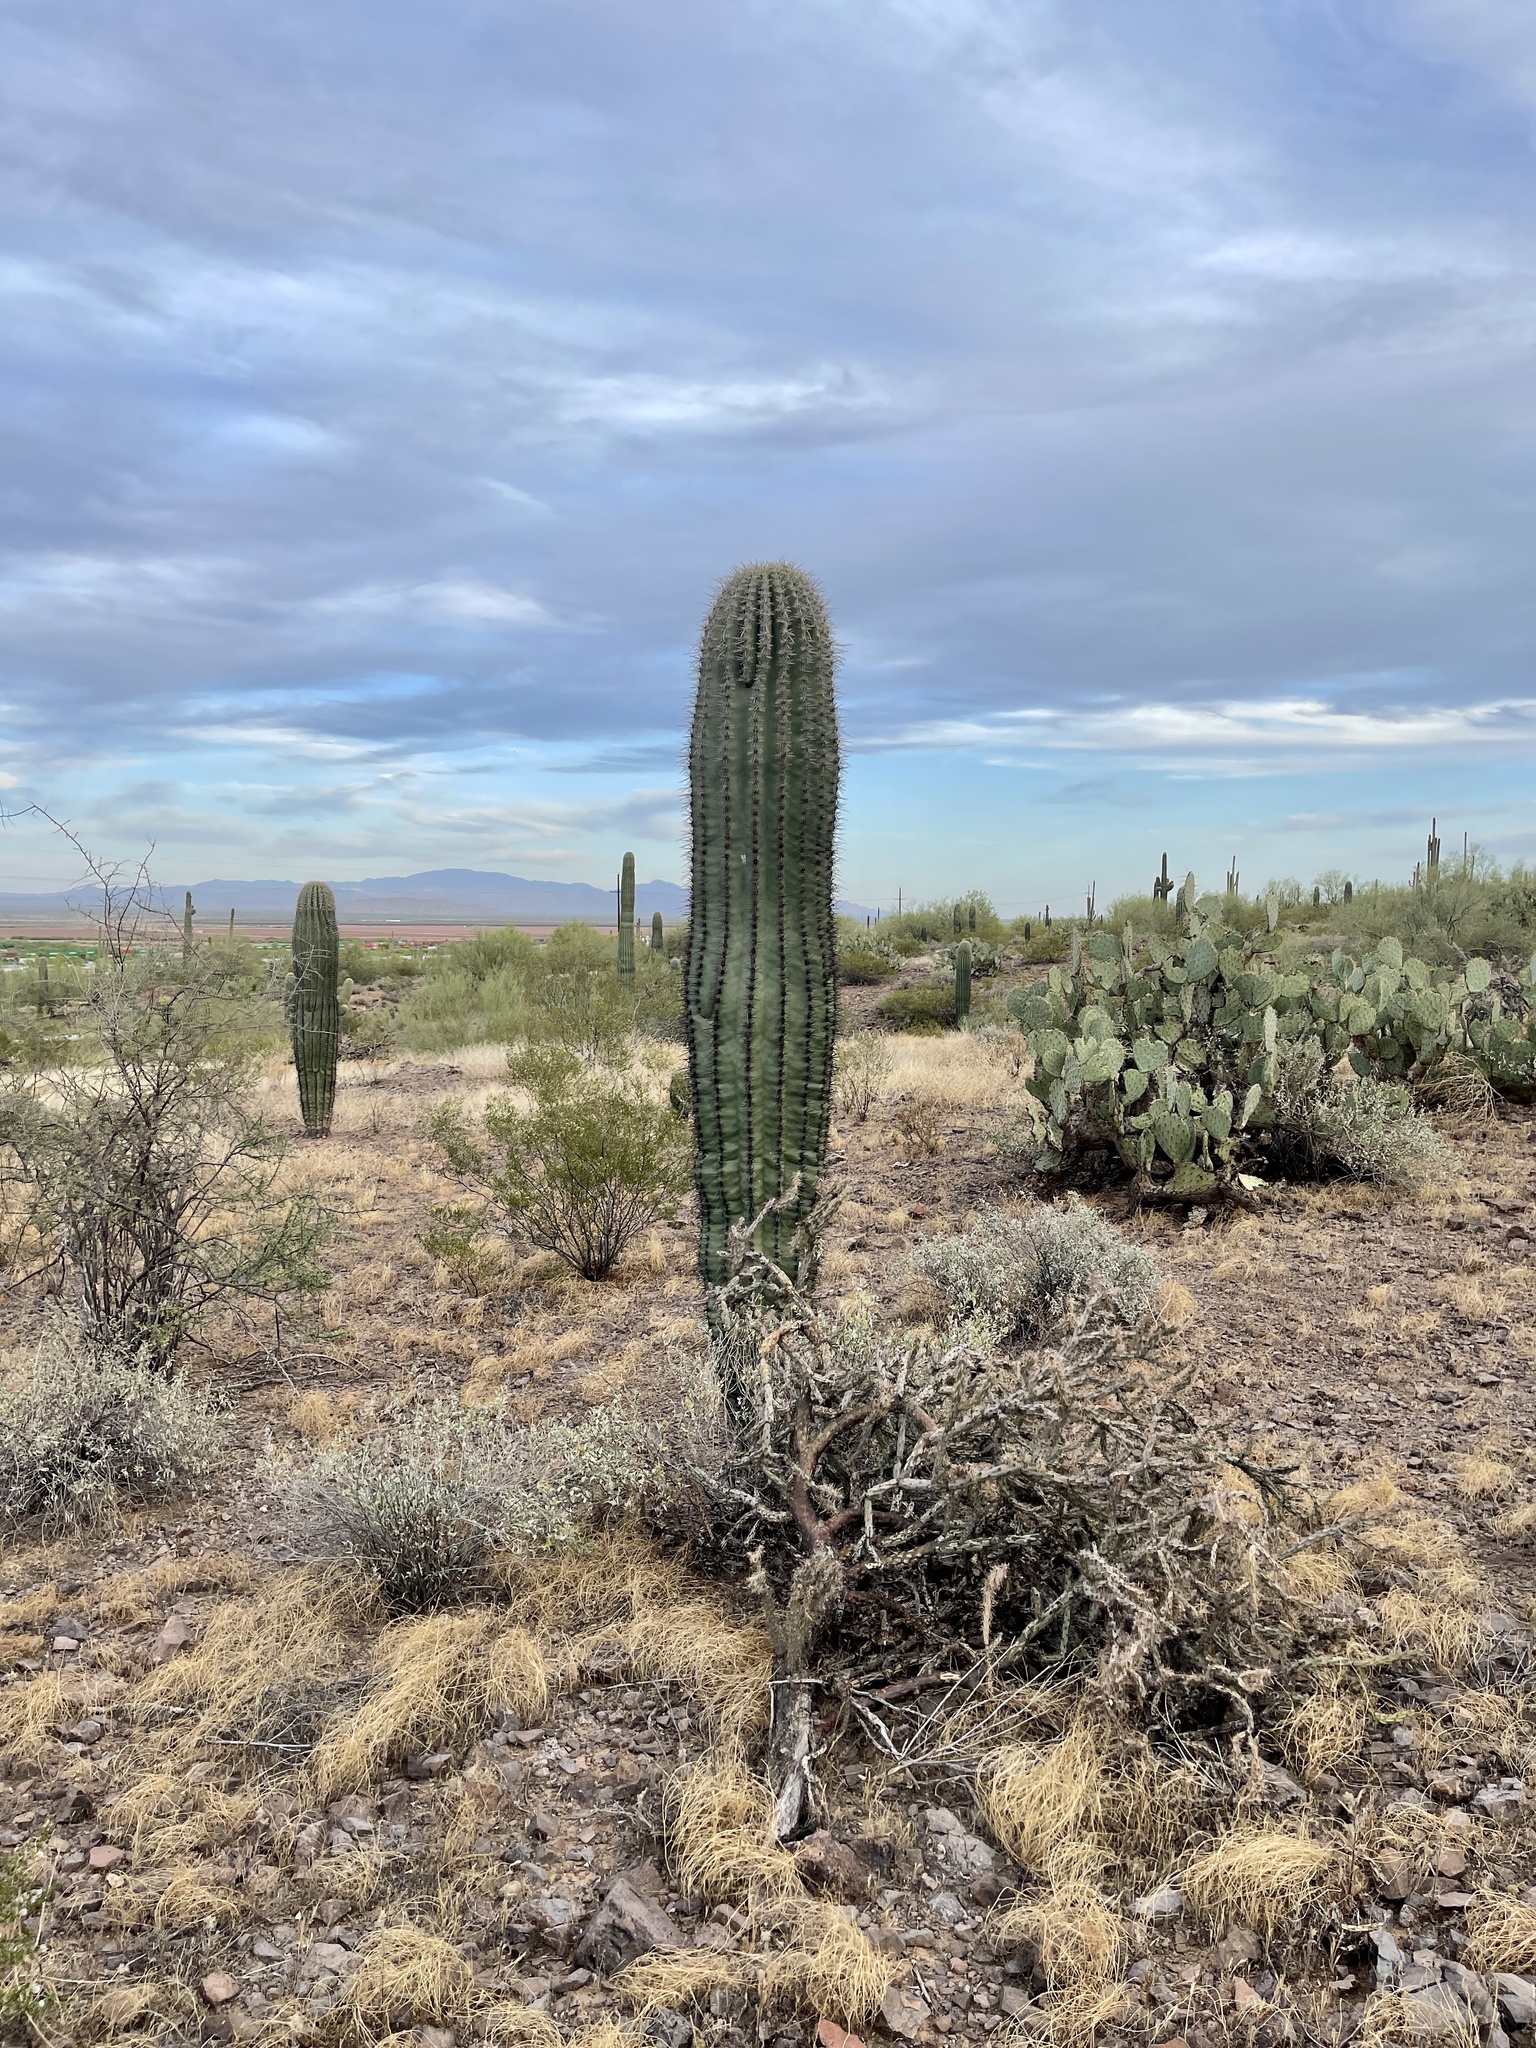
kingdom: Plantae
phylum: Tracheophyta
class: Magnoliopsida
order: Caryophyllales
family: Cactaceae
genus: Carnegiea
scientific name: Carnegiea gigantea
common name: Saguaro
